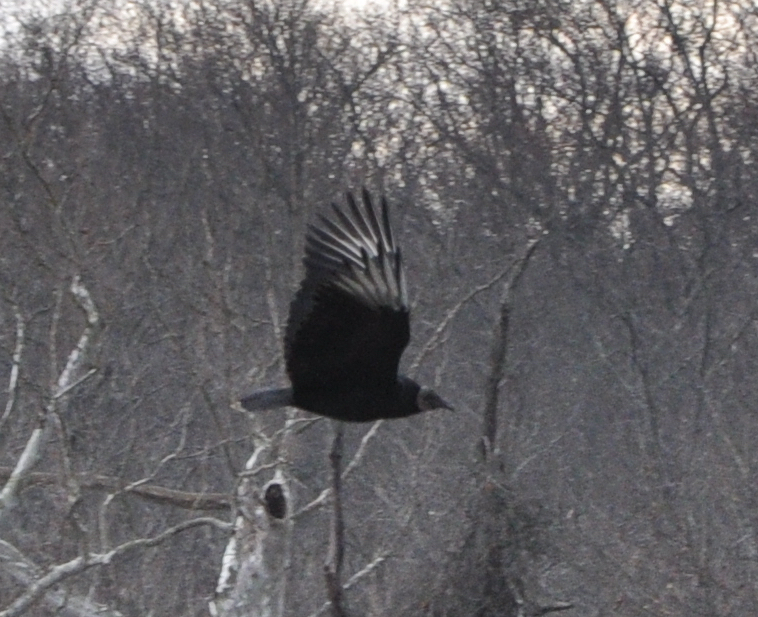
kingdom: Animalia
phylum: Chordata
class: Aves
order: Accipitriformes
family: Cathartidae
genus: Coragyps
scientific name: Coragyps atratus
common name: Black vulture
